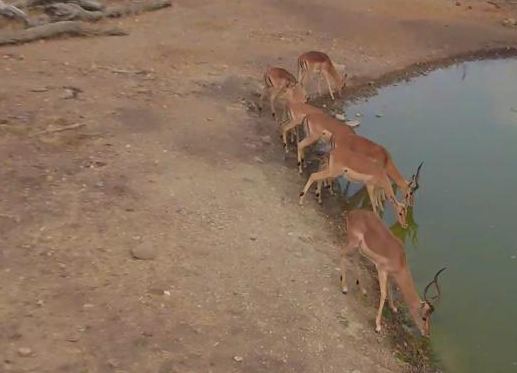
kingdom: Animalia
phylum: Chordata
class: Mammalia
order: Artiodactyla
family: Bovidae
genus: Aepyceros
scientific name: Aepyceros melampus
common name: Impala
